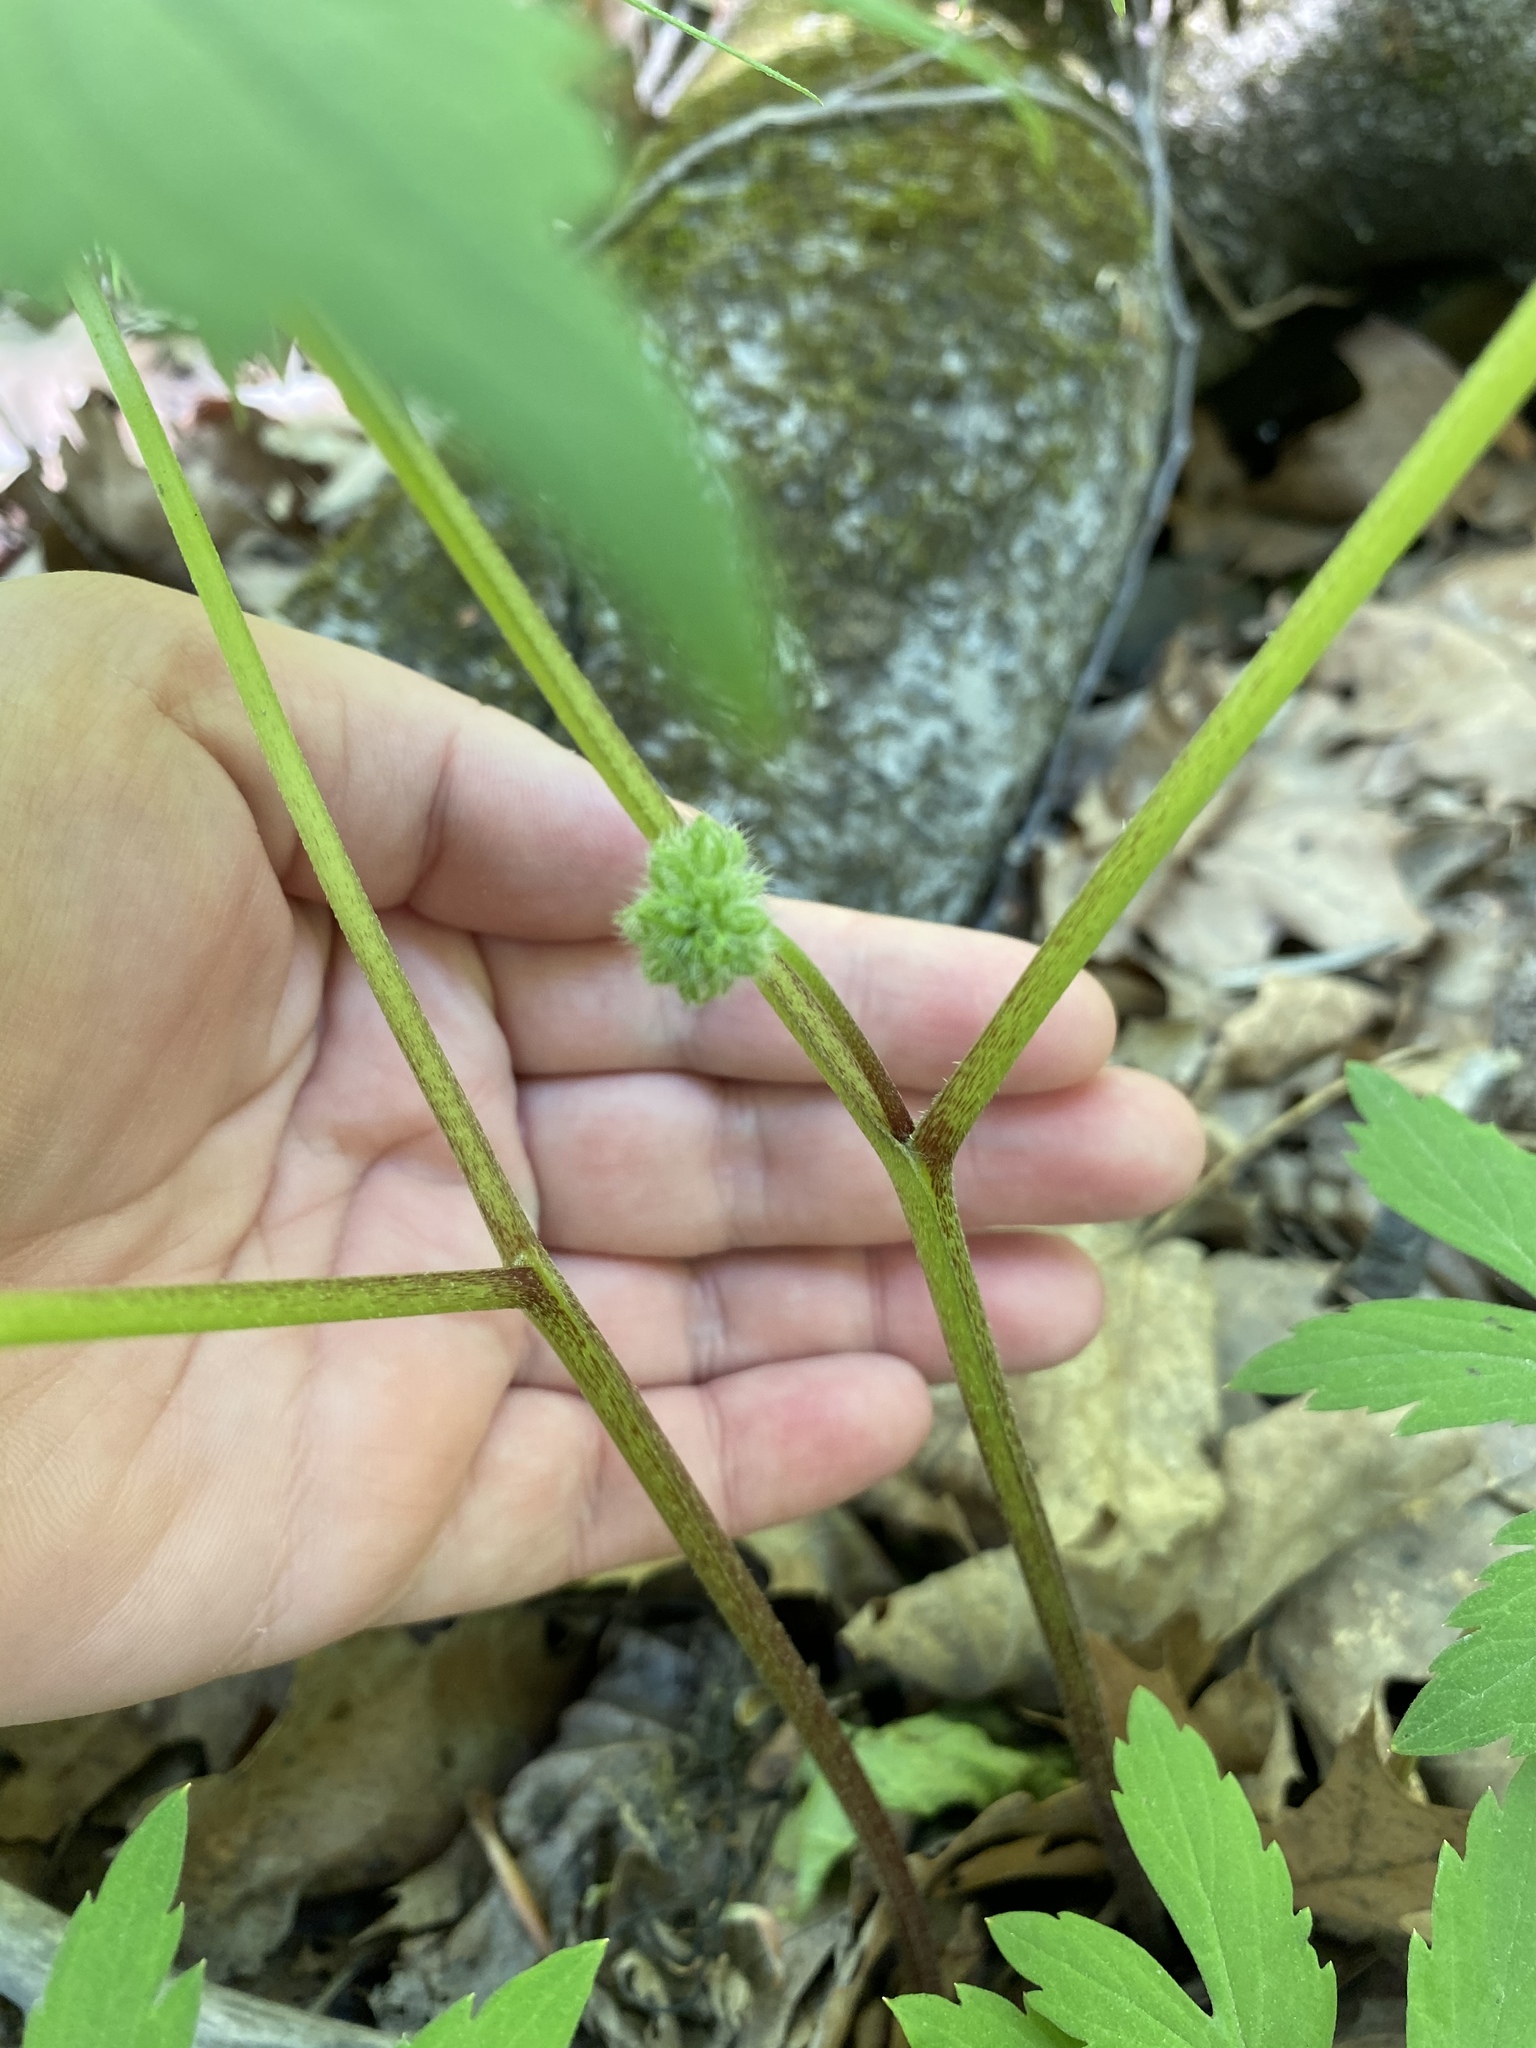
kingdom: Plantae
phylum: Tracheophyta
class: Magnoliopsida
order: Boraginales
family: Hydrophyllaceae
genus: Hydrophyllum
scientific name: Hydrophyllum virginianum
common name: Virginia waterleaf
